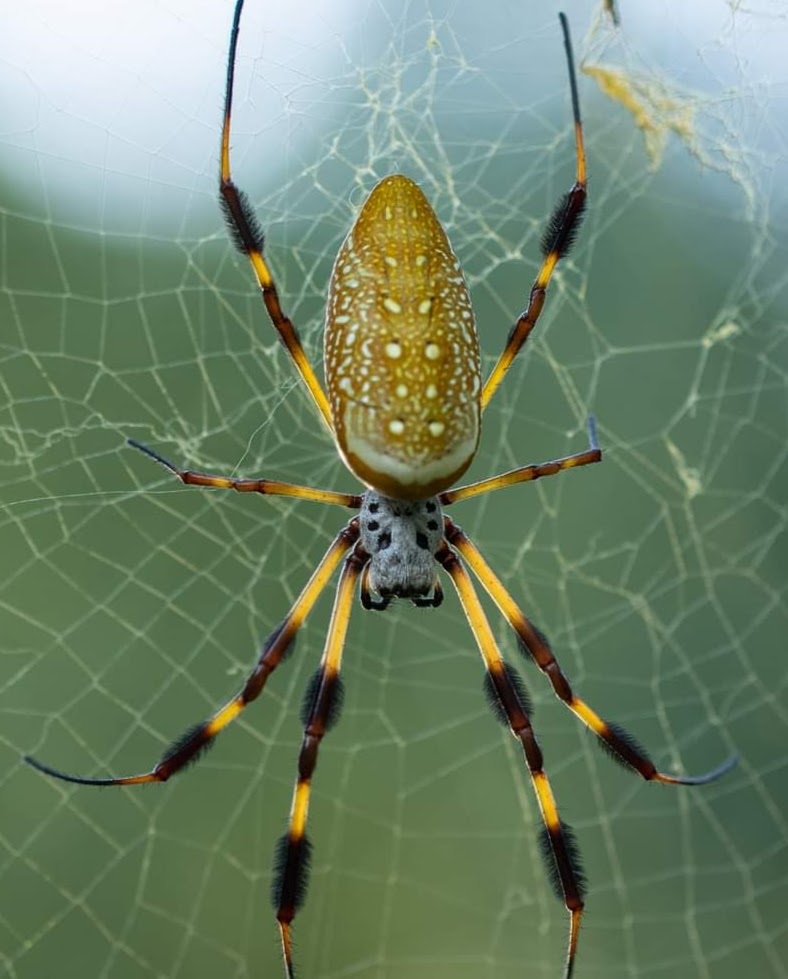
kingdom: Animalia
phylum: Arthropoda
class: Arachnida
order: Araneae
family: Araneidae
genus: Trichonephila
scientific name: Trichonephila clavipes
